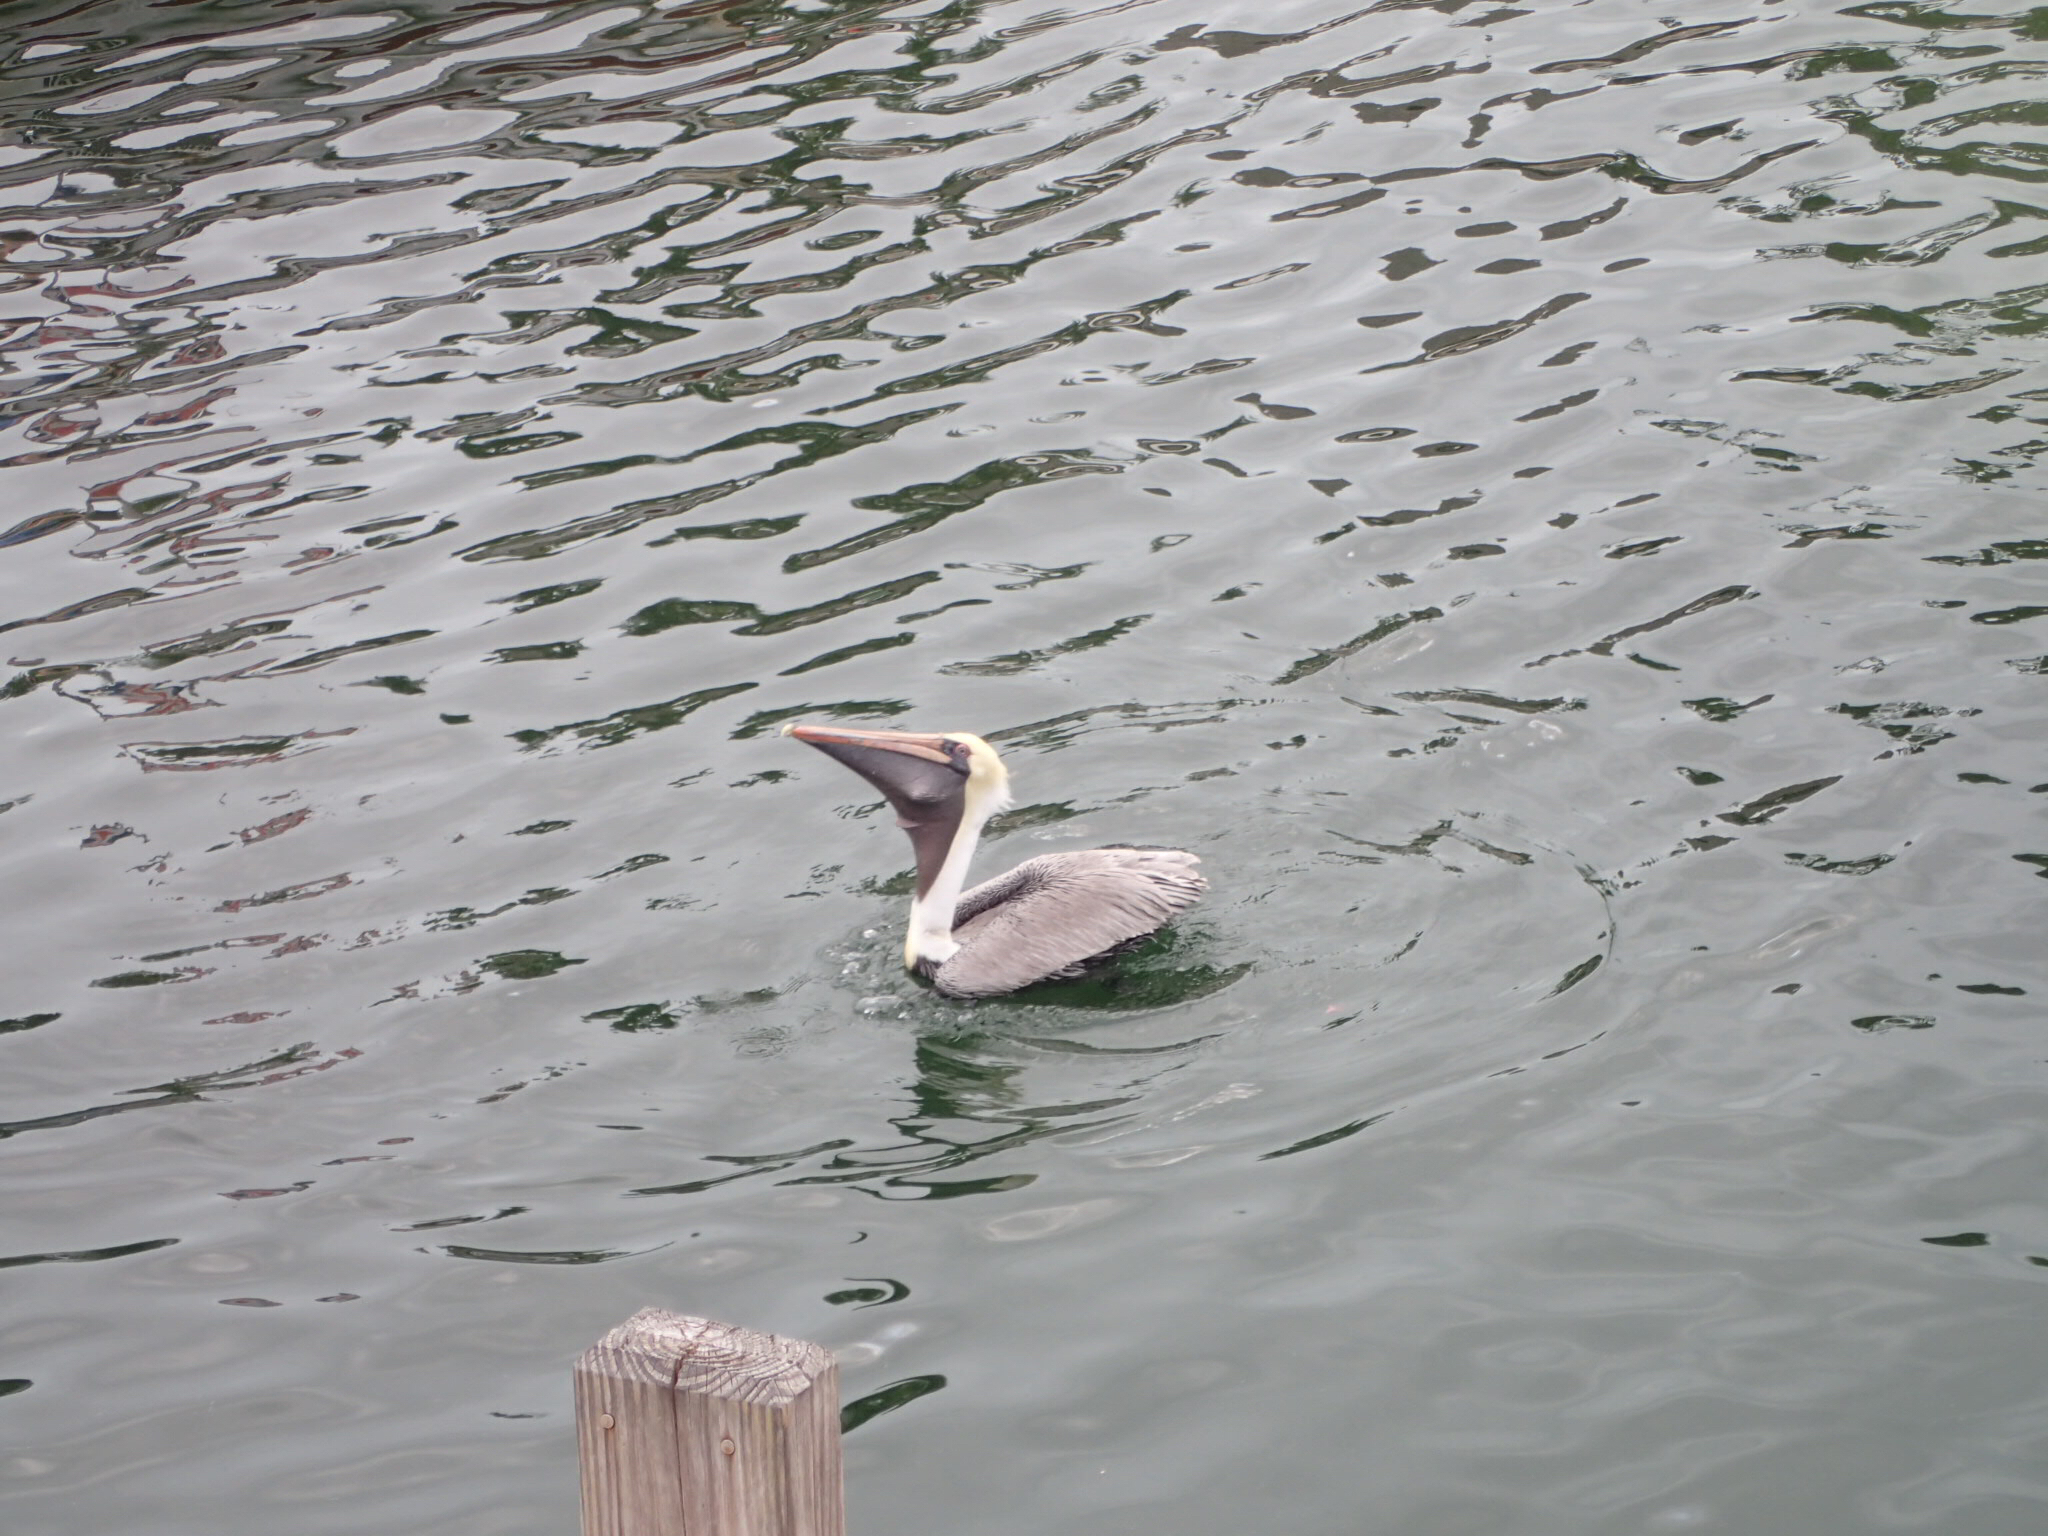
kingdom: Animalia
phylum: Chordata
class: Aves
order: Pelecaniformes
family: Pelecanidae
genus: Pelecanus
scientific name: Pelecanus occidentalis
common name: Brown pelican
